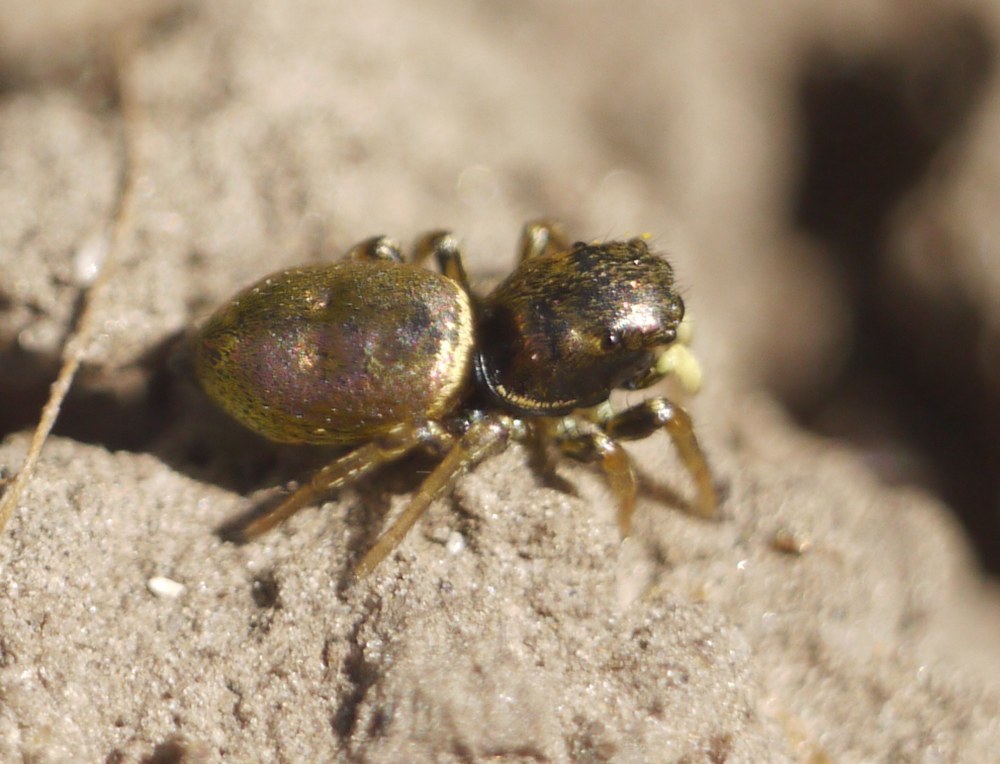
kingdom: Animalia
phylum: Arthropoda
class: Arachnida
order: Araneae
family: Salticidae
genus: Heliophanus
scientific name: Heliophanus auratus
